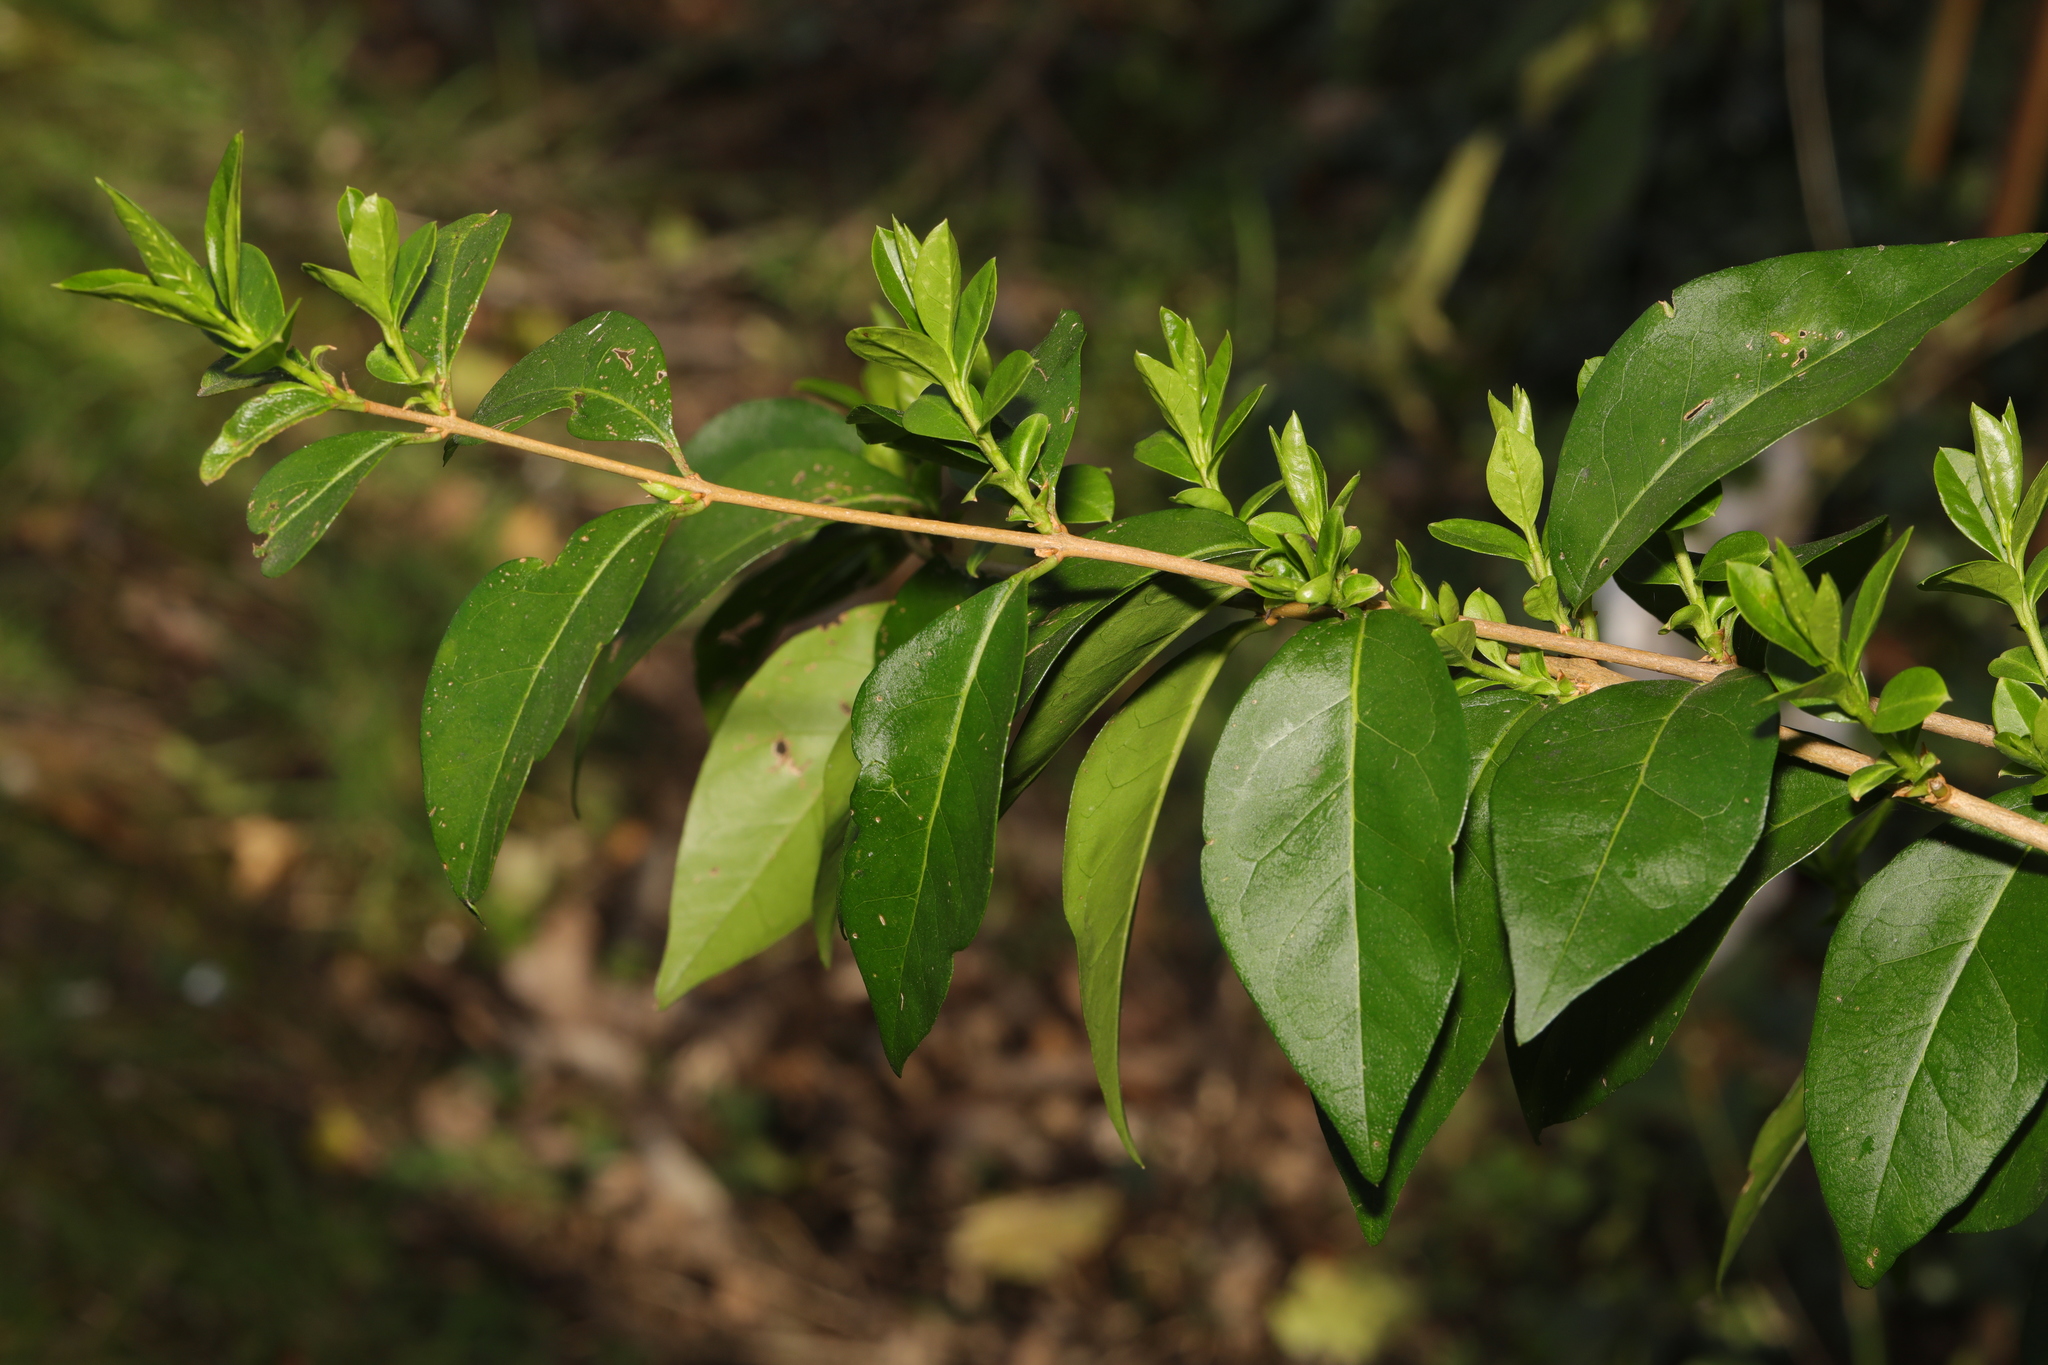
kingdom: Plantae
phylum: Tracheophyta
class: Magnoliopsida
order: Lamiales
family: Oleaceae
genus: Ligustrum
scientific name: Ligustrum ovalifolium
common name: California privet
